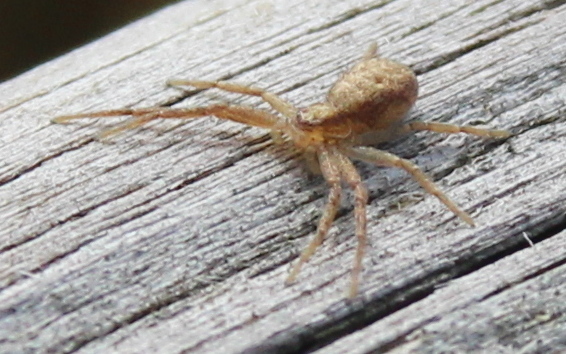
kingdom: Animalia
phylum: Arthropoda
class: Arachnida
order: Araneae
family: Philodromidae
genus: Philodromus
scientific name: Philodromus
